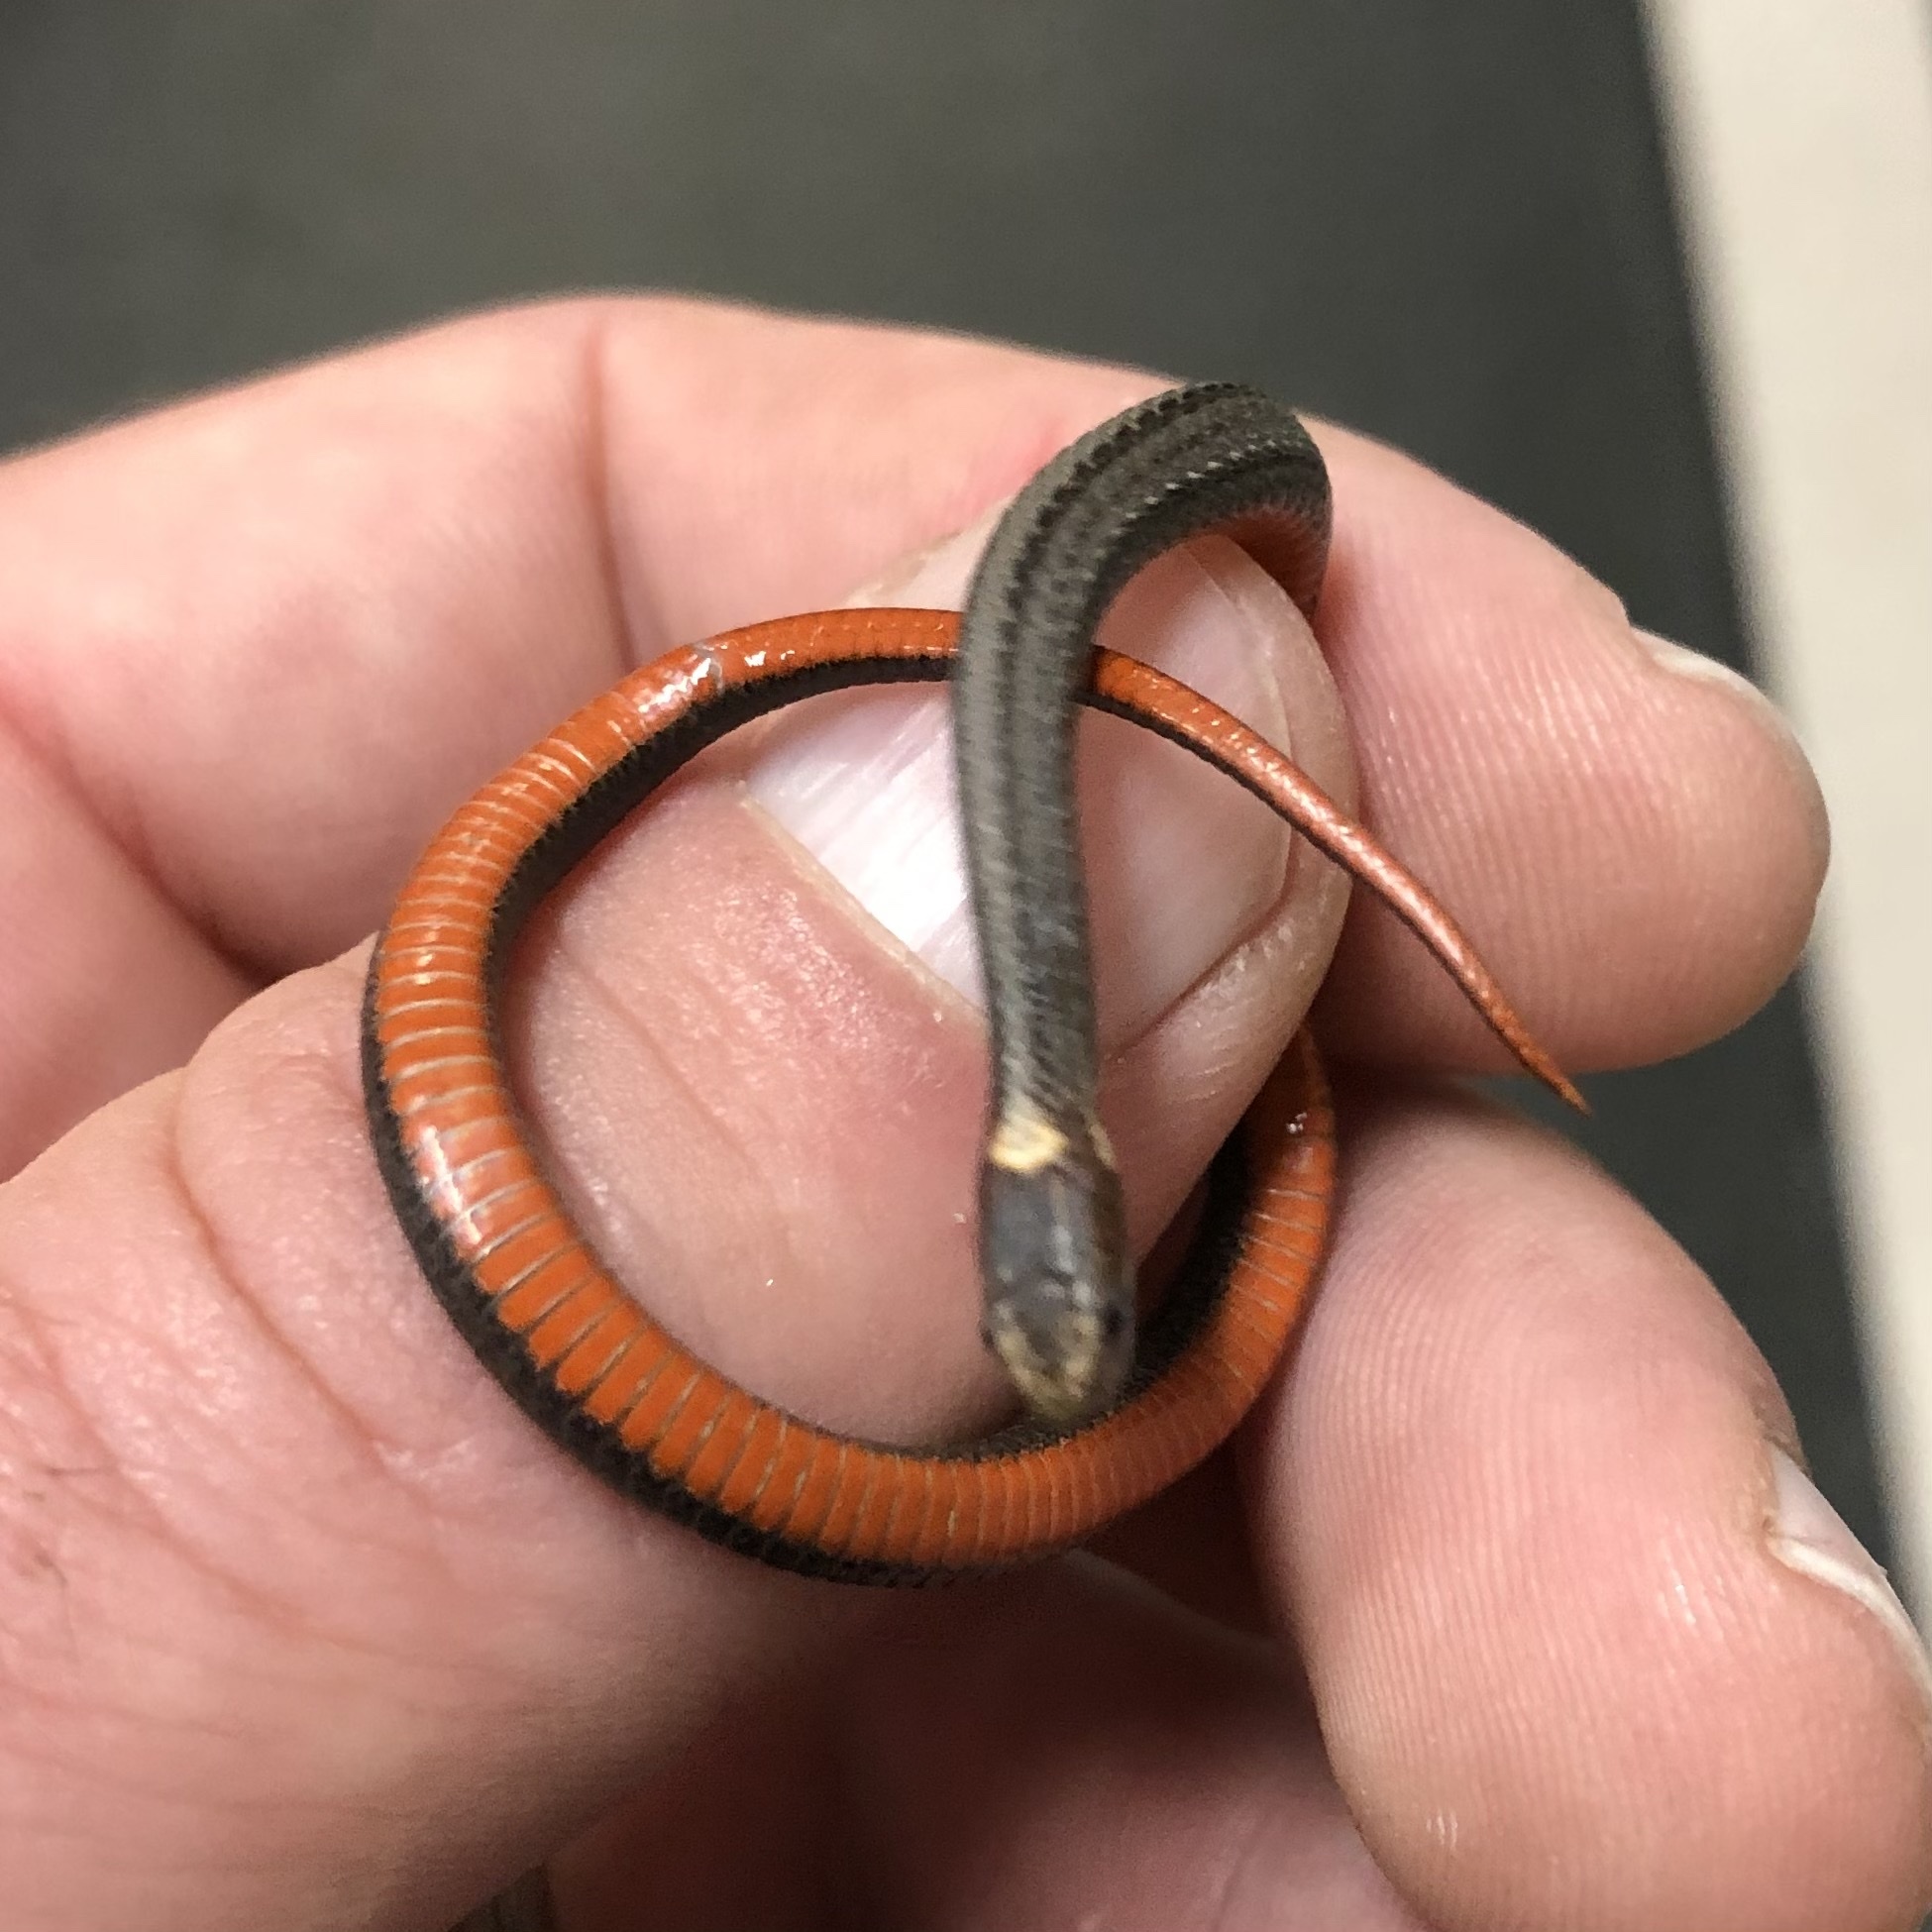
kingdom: Animalia
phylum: Chordata
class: Squamata
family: Colubridae
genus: Storeria
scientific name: Storeria occipitomaculata
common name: Redbelly snake
